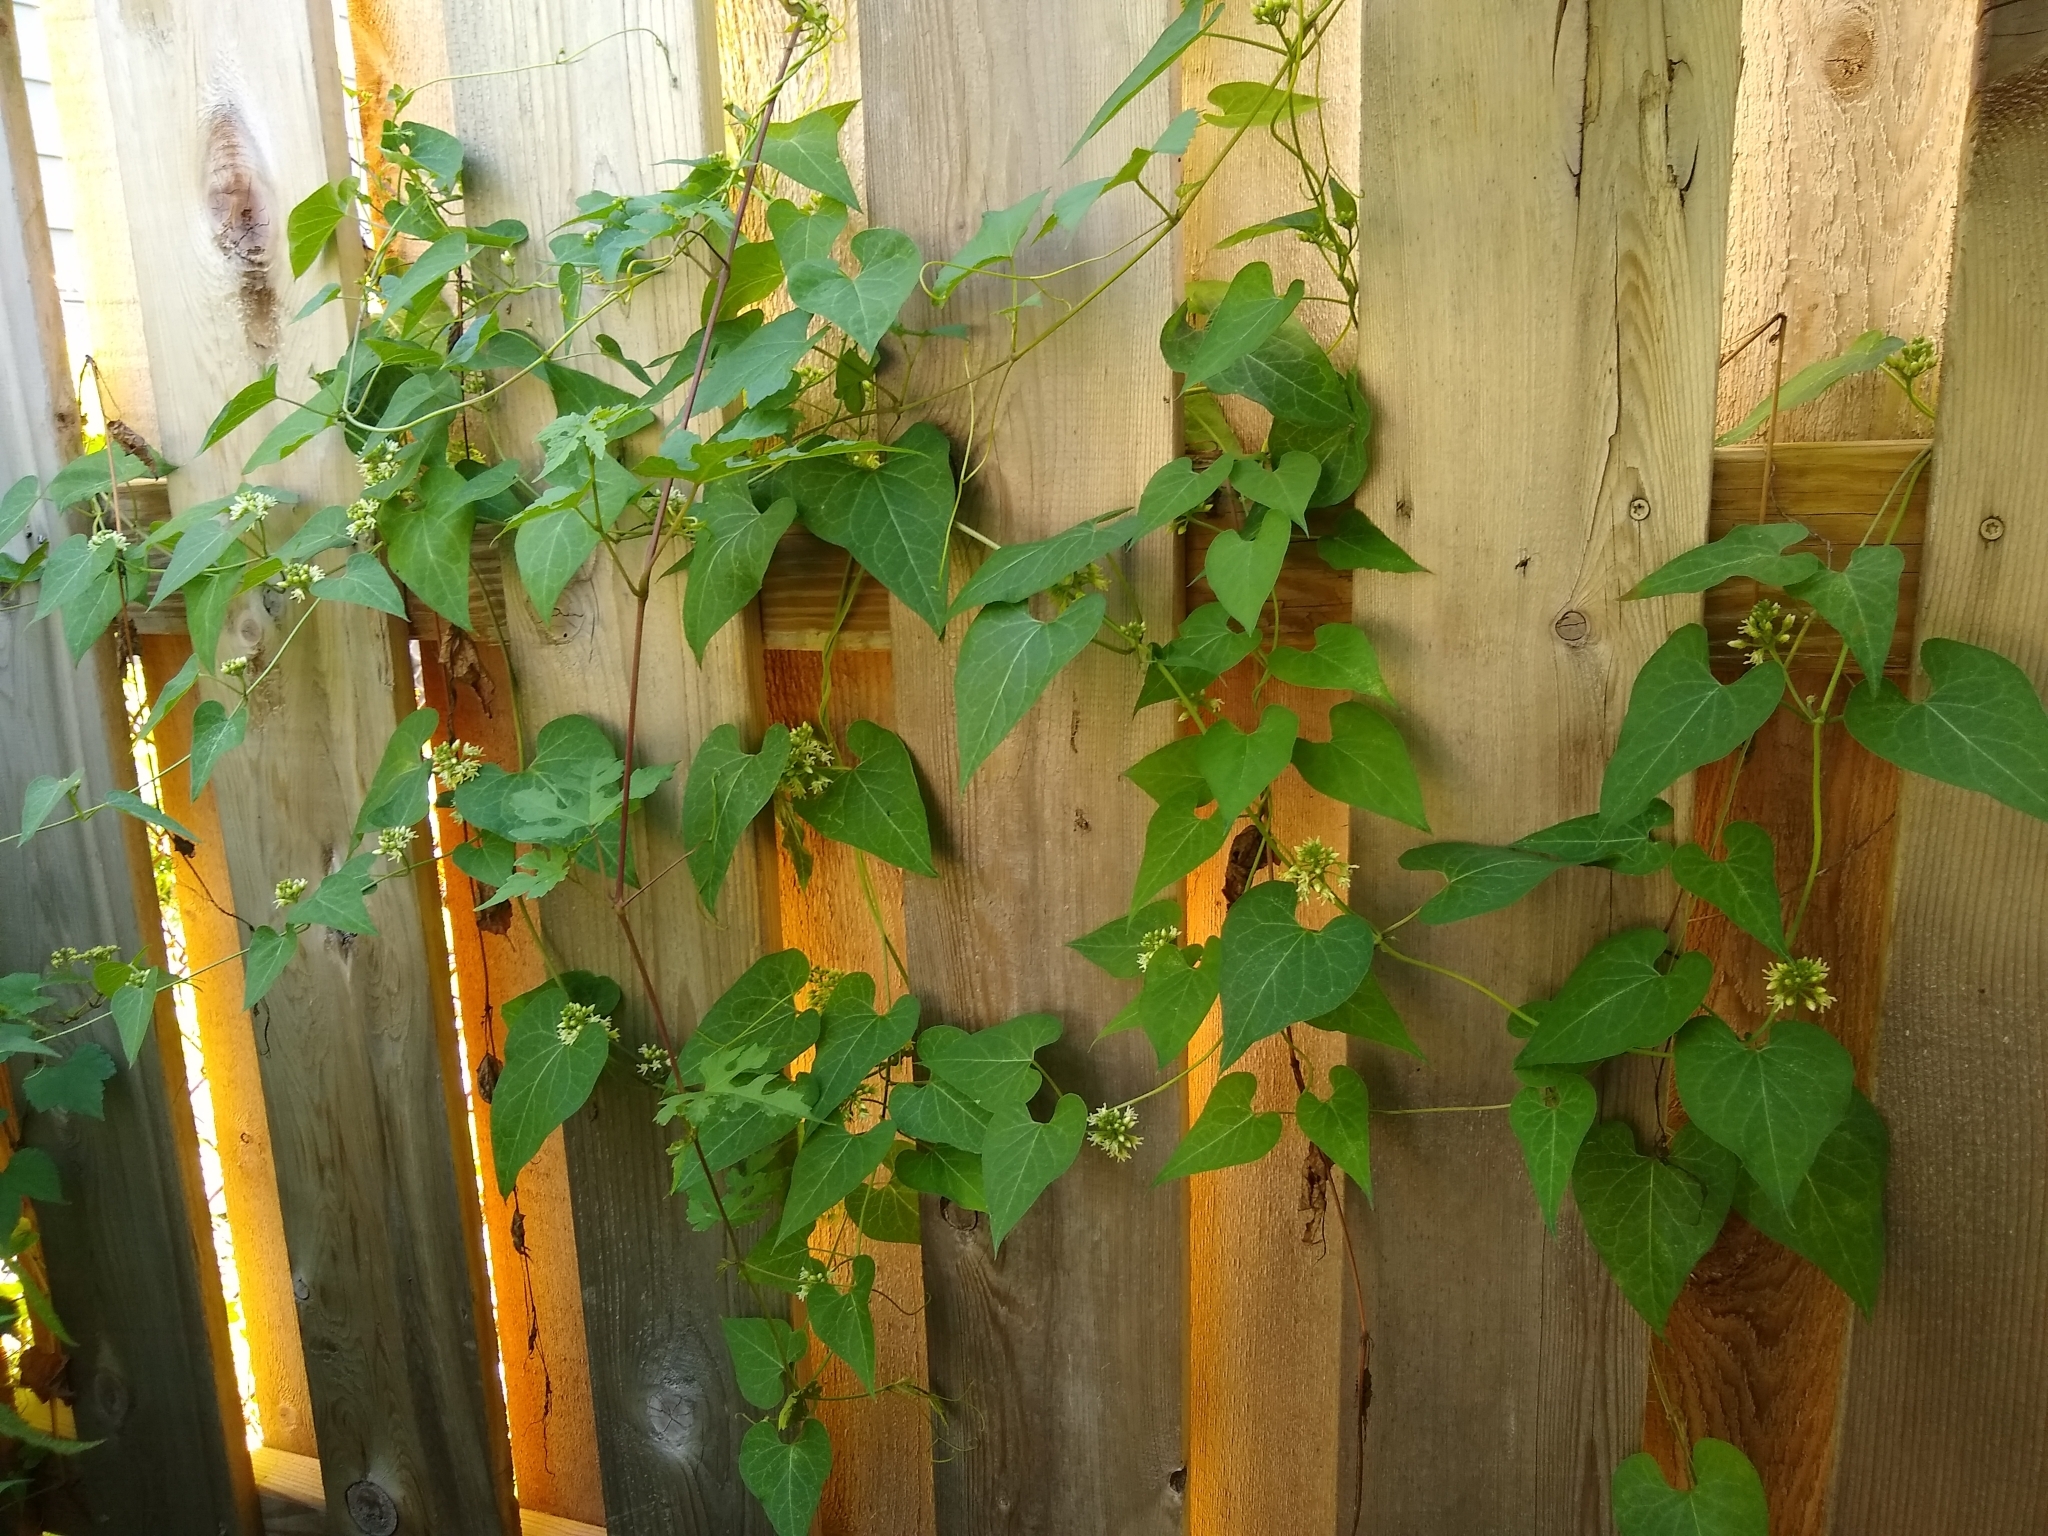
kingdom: Plantae
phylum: Tracheophyta
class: Magnoliopsida
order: Gentianales
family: Apocynaceae
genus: Cynanchum
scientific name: Cynanchum laeve
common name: Sandvine
